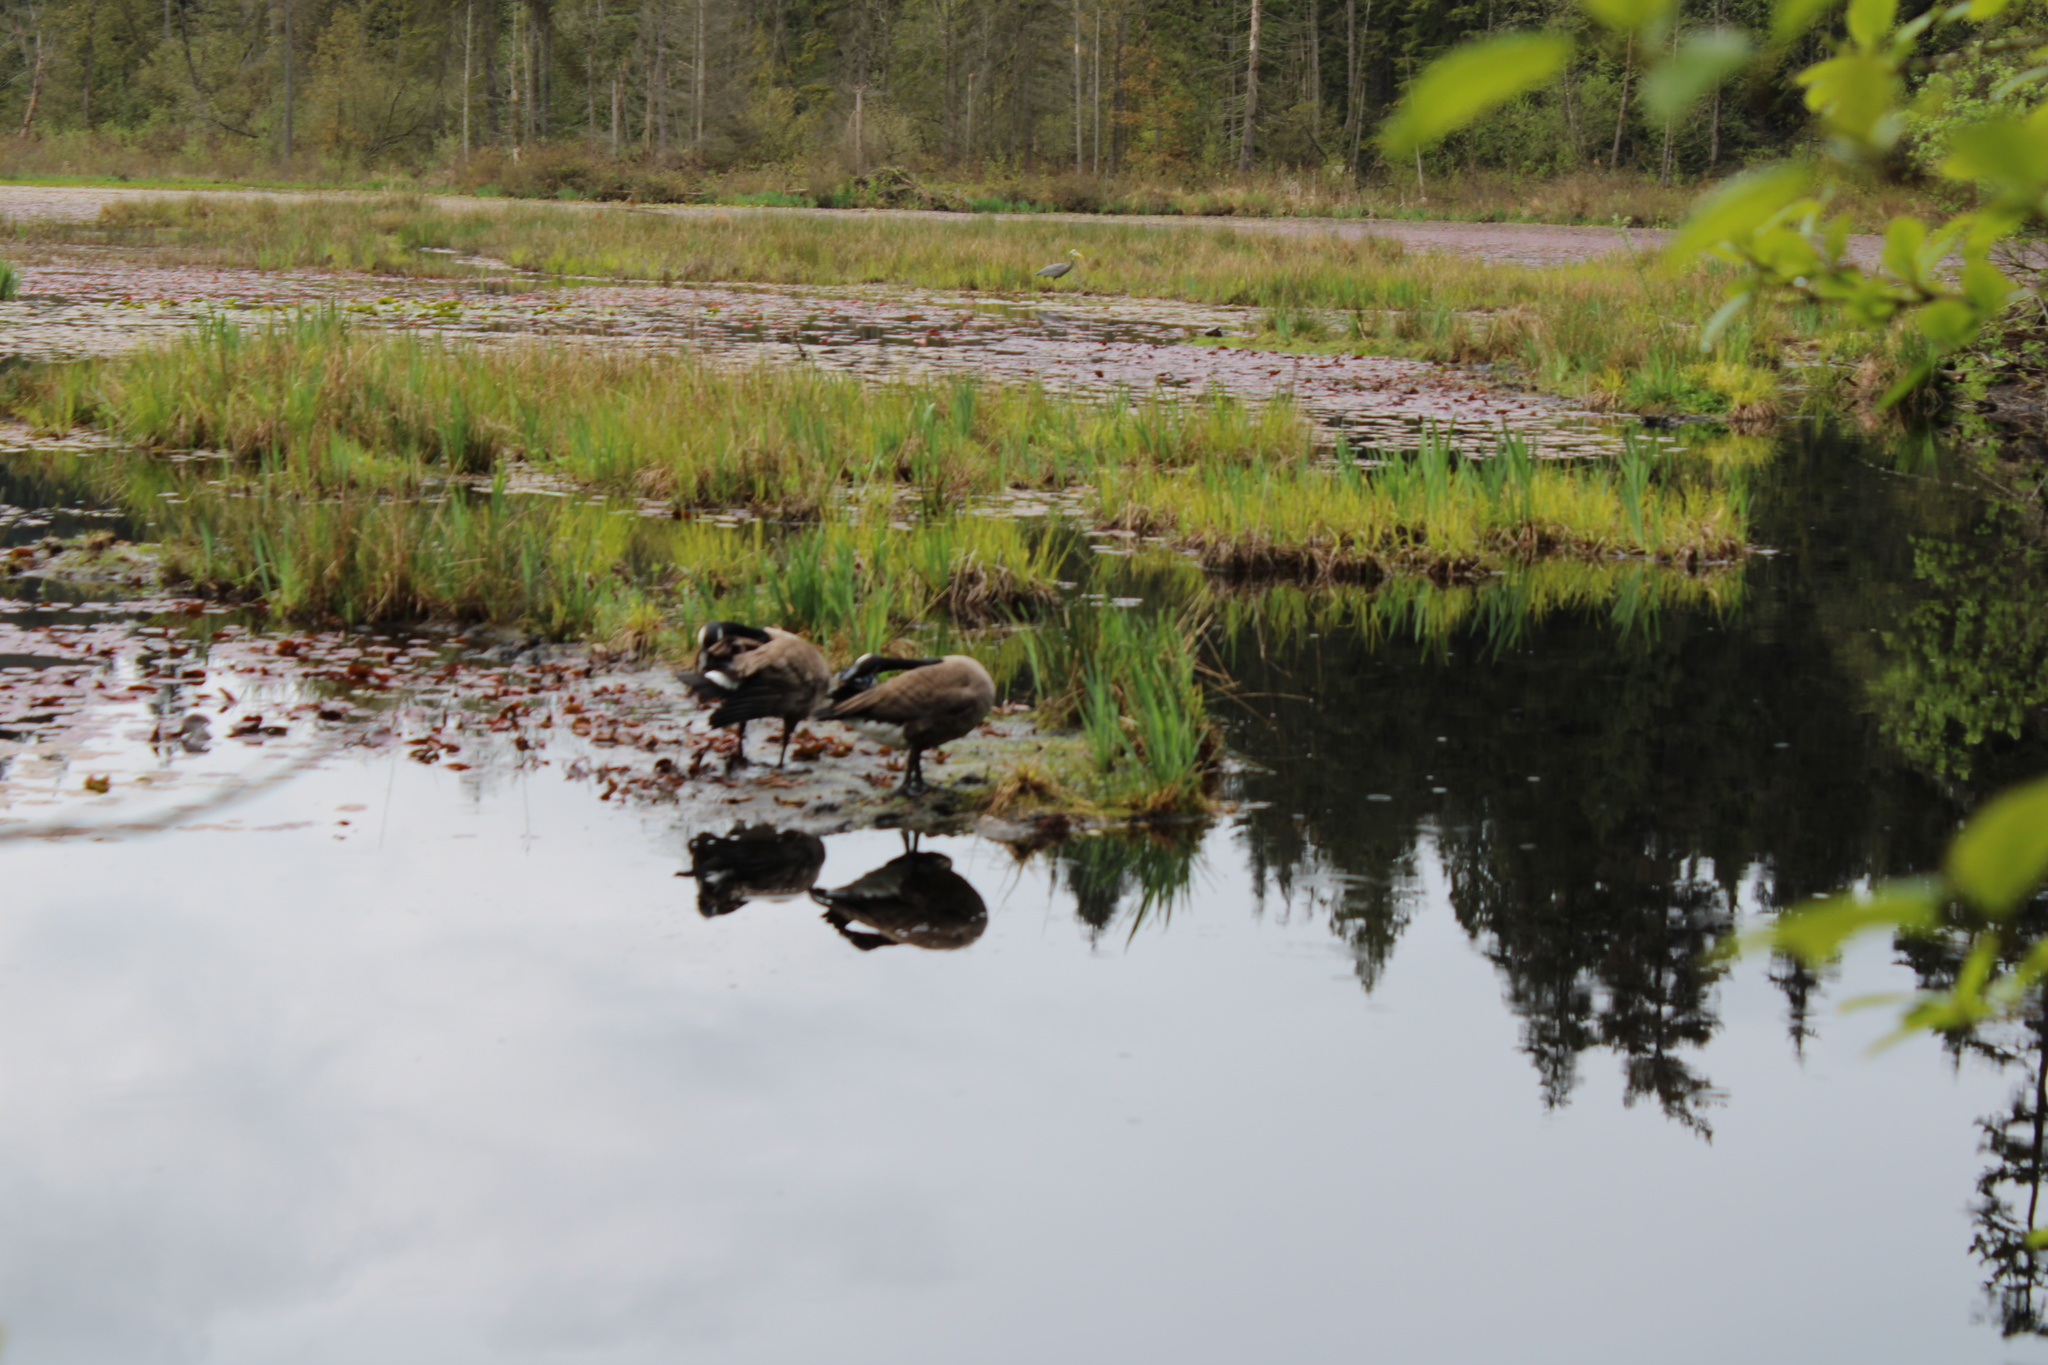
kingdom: Animalia
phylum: Chordata
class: Aves
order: Anseriformes
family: Anatidae
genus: Branta
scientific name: Branta canadensis
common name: Canada goose
